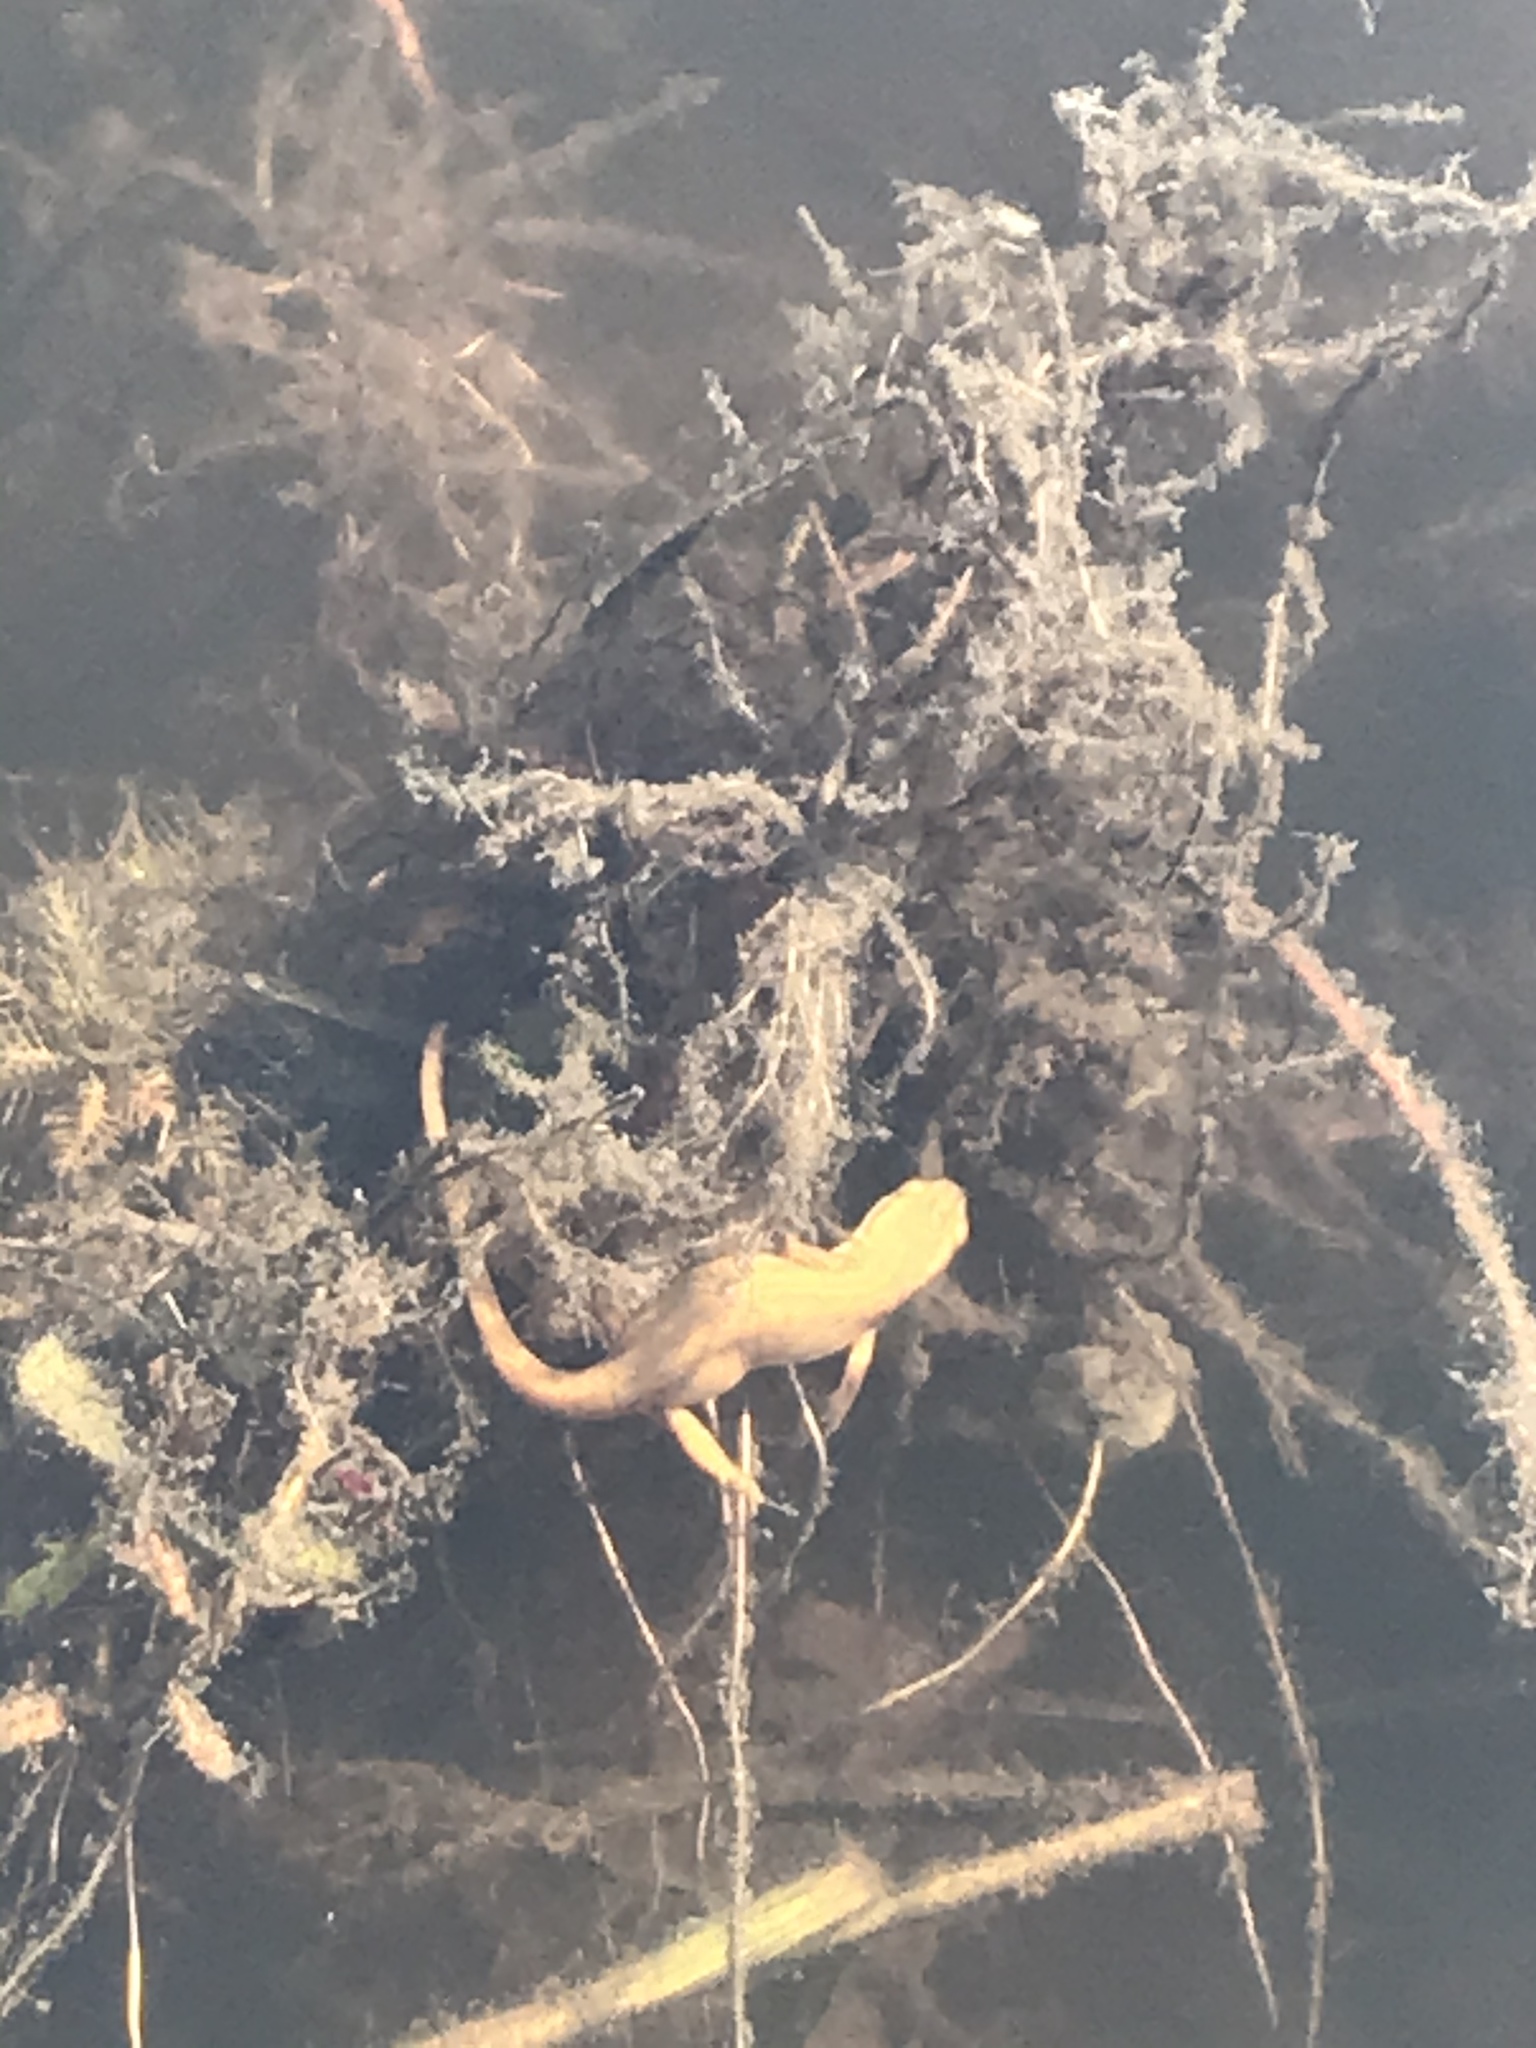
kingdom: Animalia
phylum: Chordata
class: Amphibia
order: Caudata
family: Salamandridae
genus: Notophthalmus
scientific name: Notophthalmus viridescens
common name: Eastern newt
